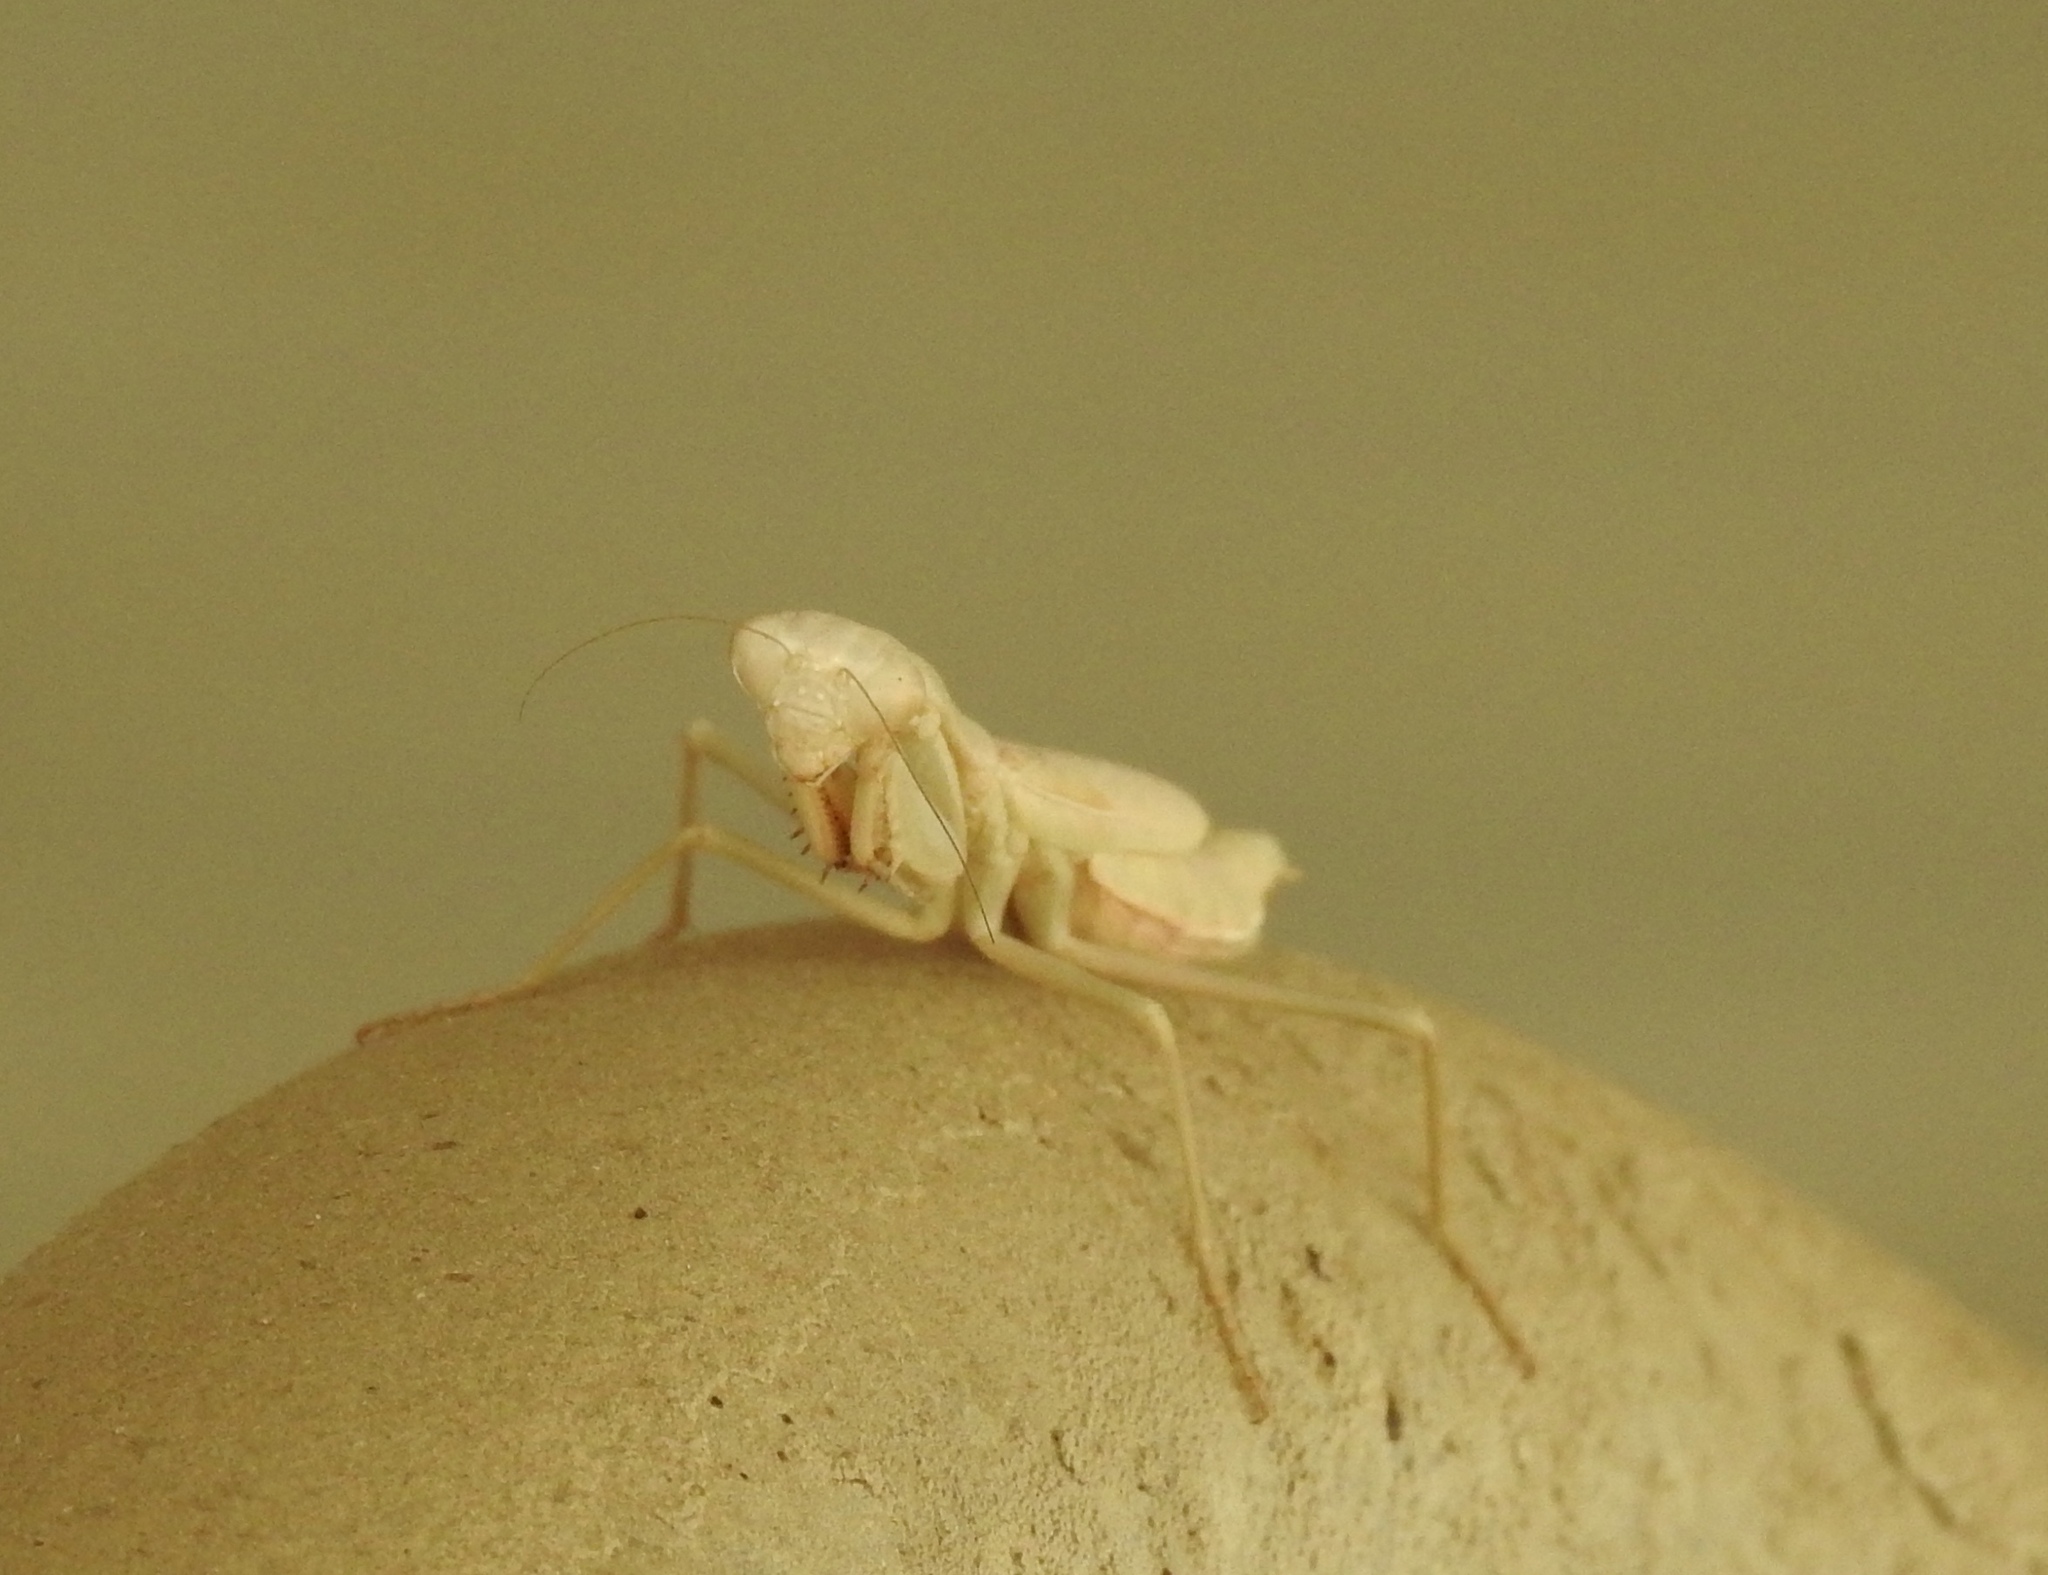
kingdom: Animalia
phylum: Arthropoda
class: Insecta
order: Mantodea
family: Eremiaphilidae
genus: Iris
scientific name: Iris oratoria
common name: Mediterranean mantis
